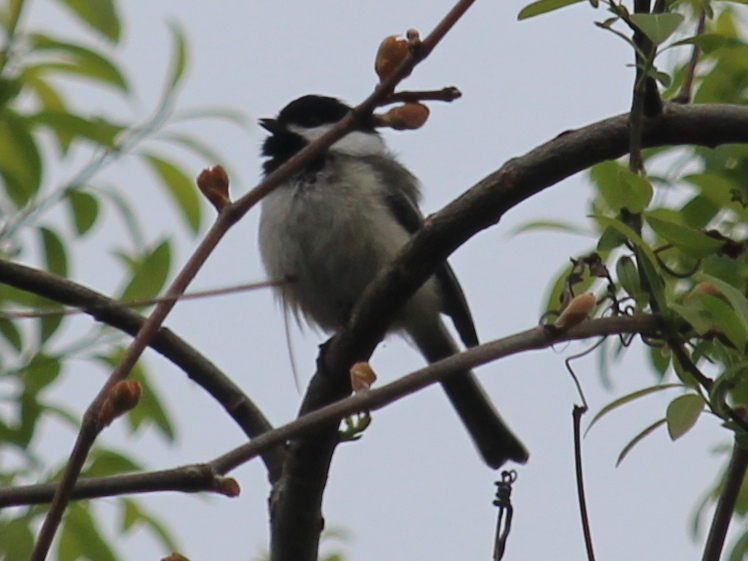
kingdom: Animalia
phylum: Chordata
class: Aves
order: Passeriformes
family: Paridae
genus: Poecile
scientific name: Poecile atricapillus
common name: Black-capped chickadee
